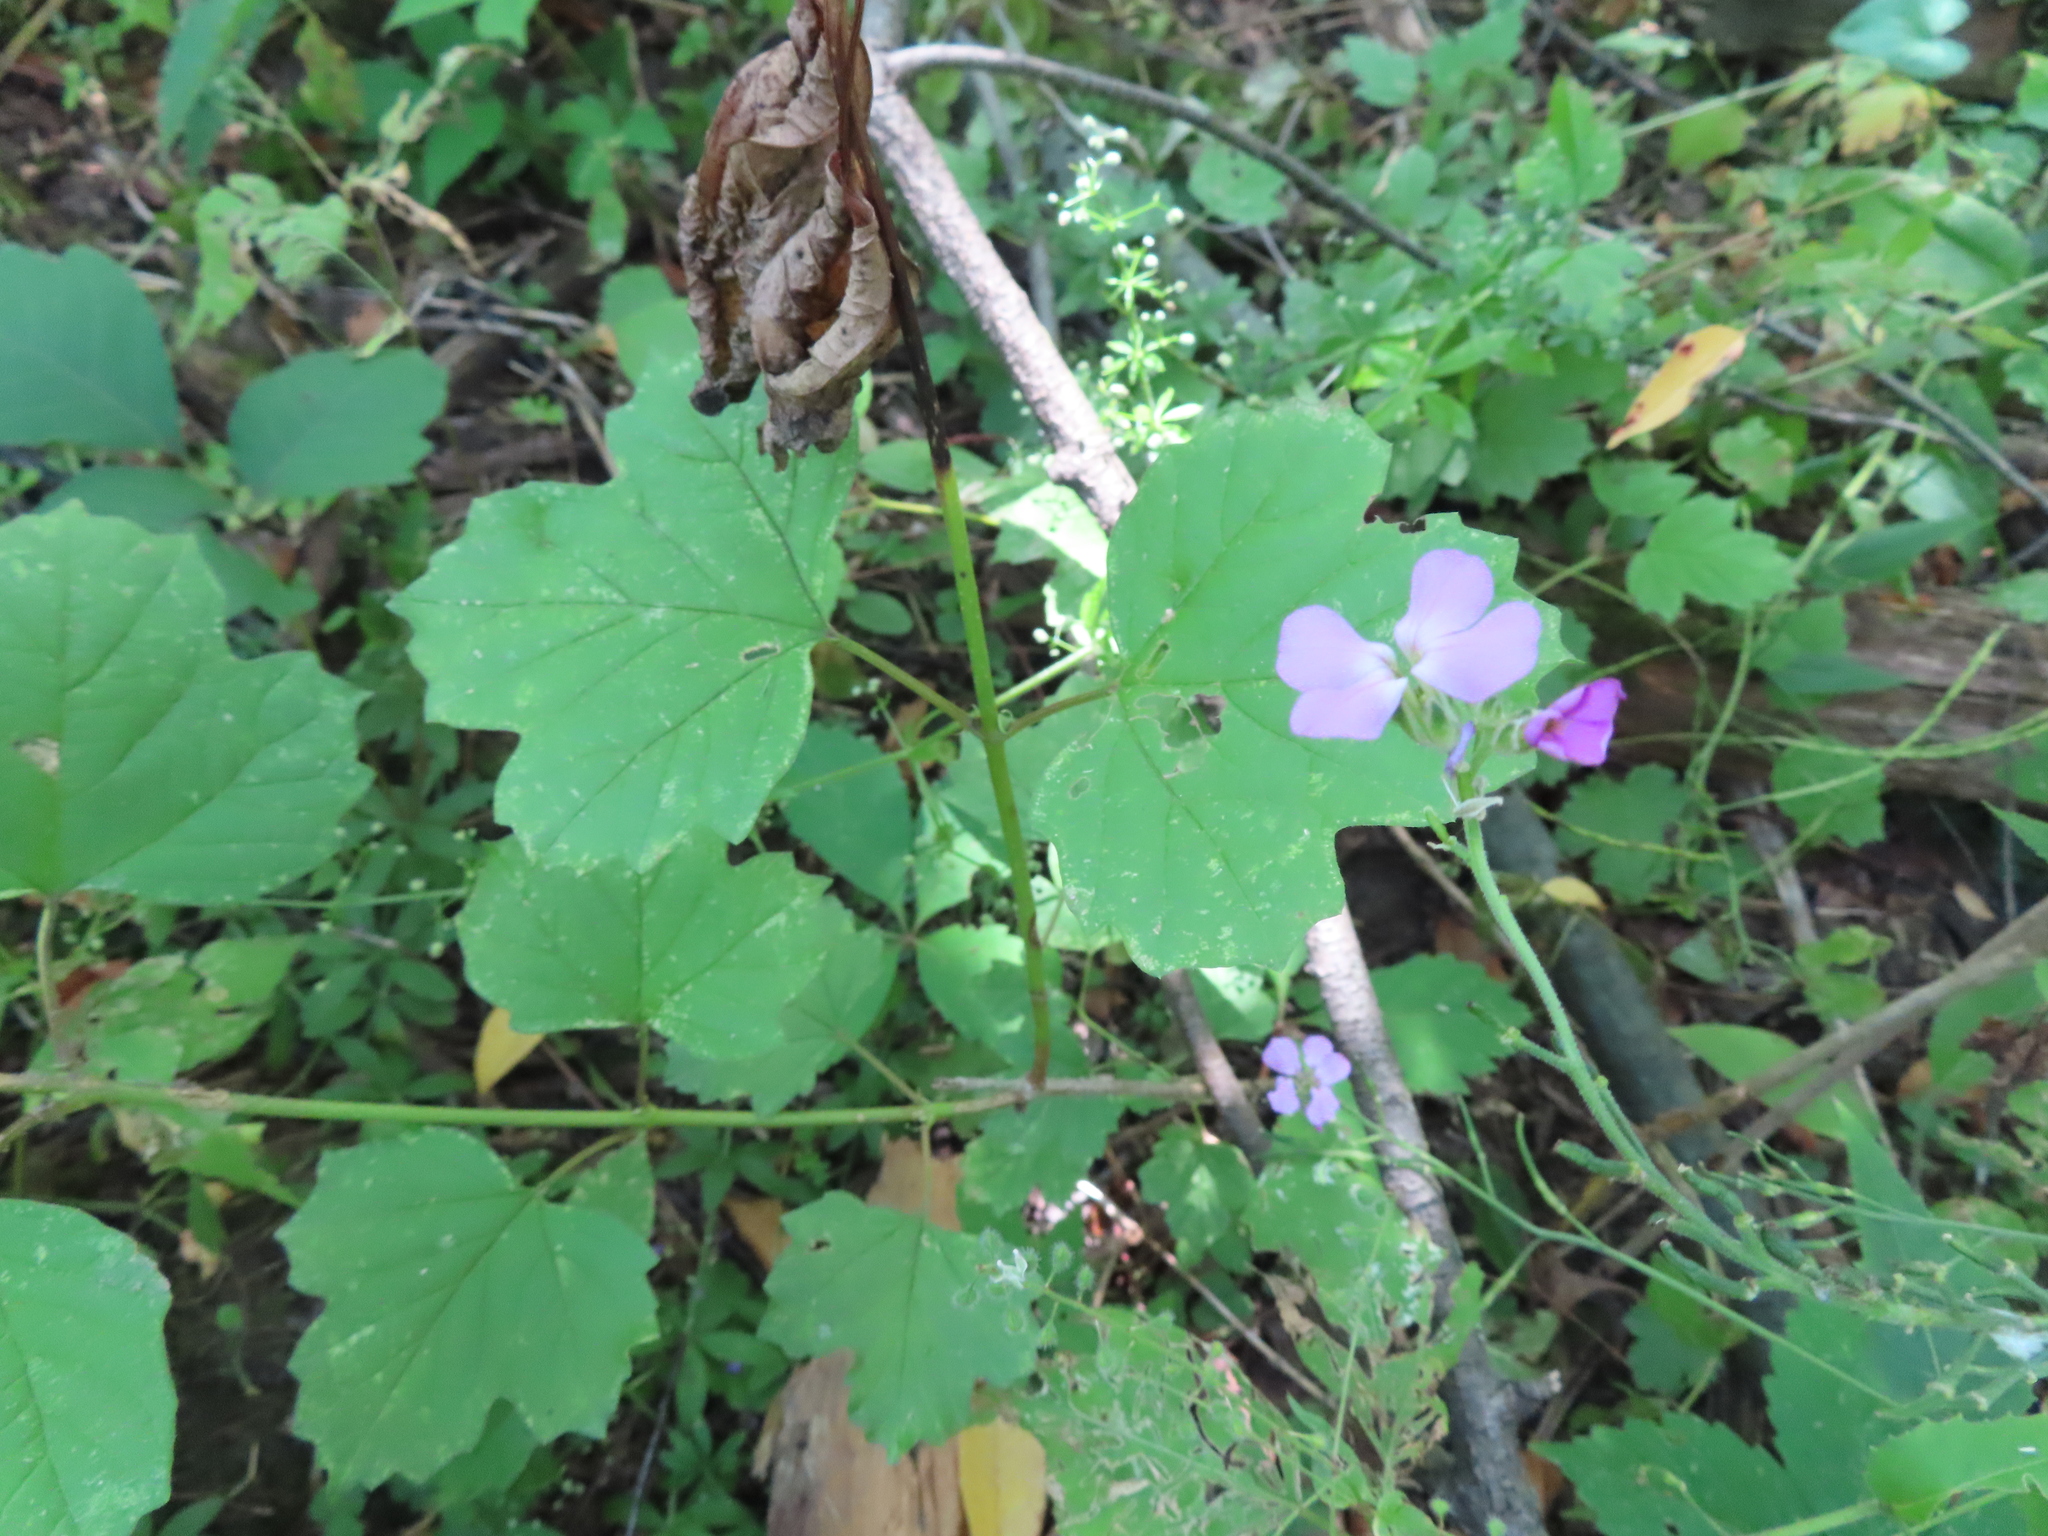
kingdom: Plantae
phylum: Tracheophyta
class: Magnoliopsida
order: Dipsacales
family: Viburnaceae
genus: Viburnum
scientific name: Viburnum opulus
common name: Guelder-rose
